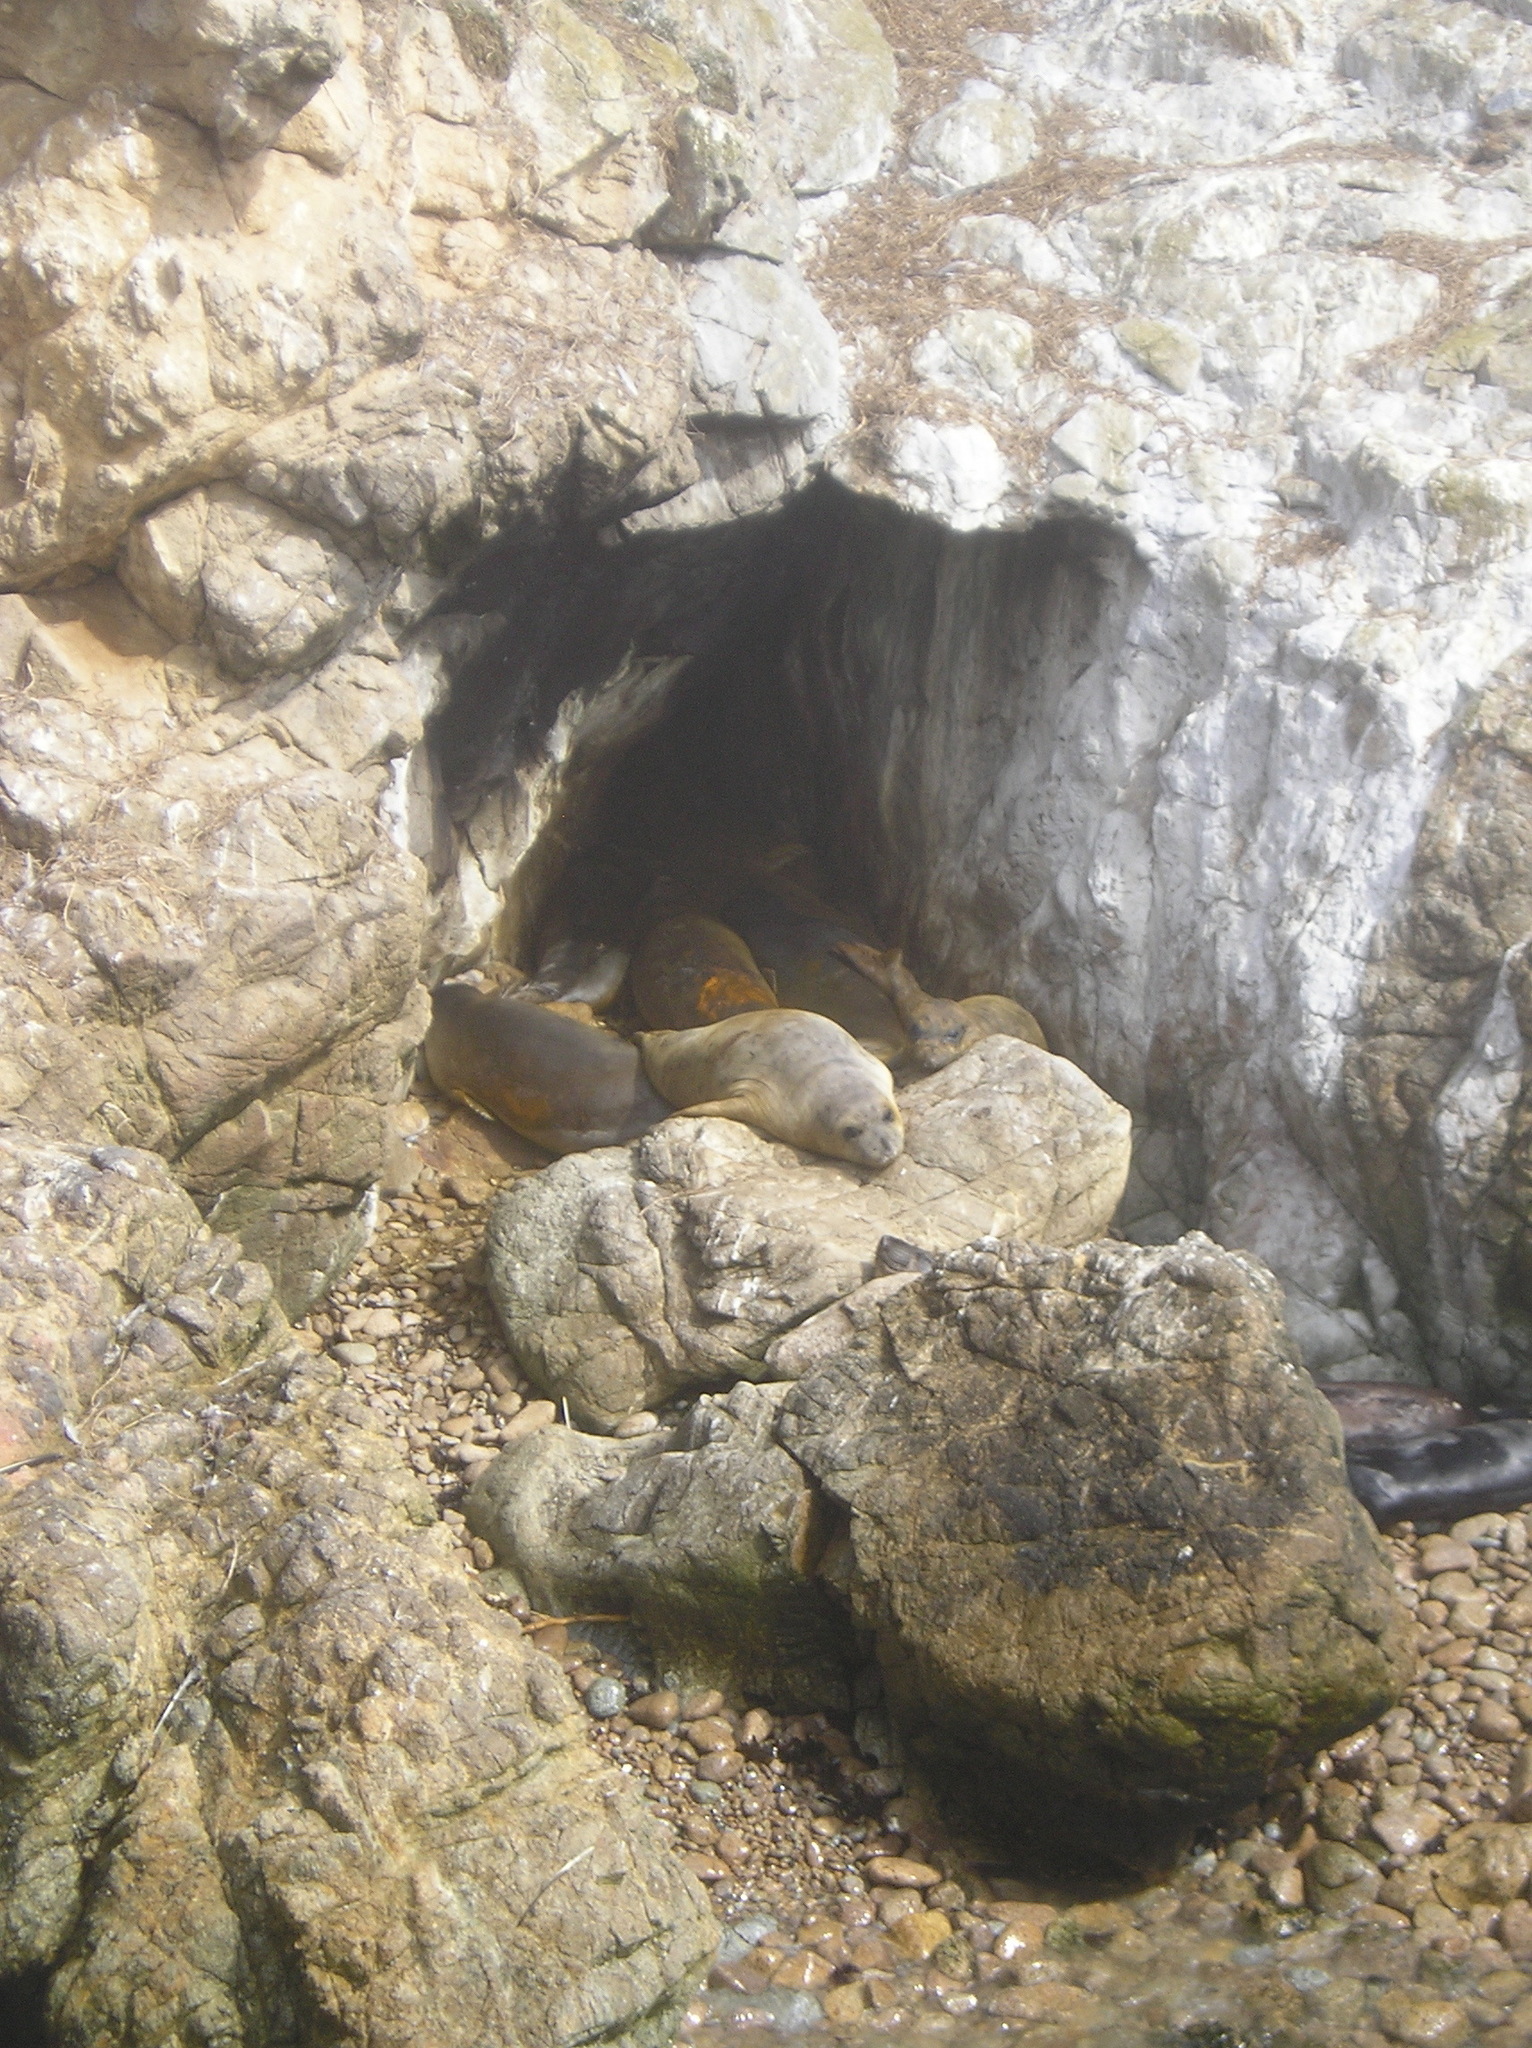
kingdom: Animalia
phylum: Chordata
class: Mammalia
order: Carnivora
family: Phocidae
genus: Mirounga
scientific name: Mirounga angustirostris
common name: Northern elephant seal
